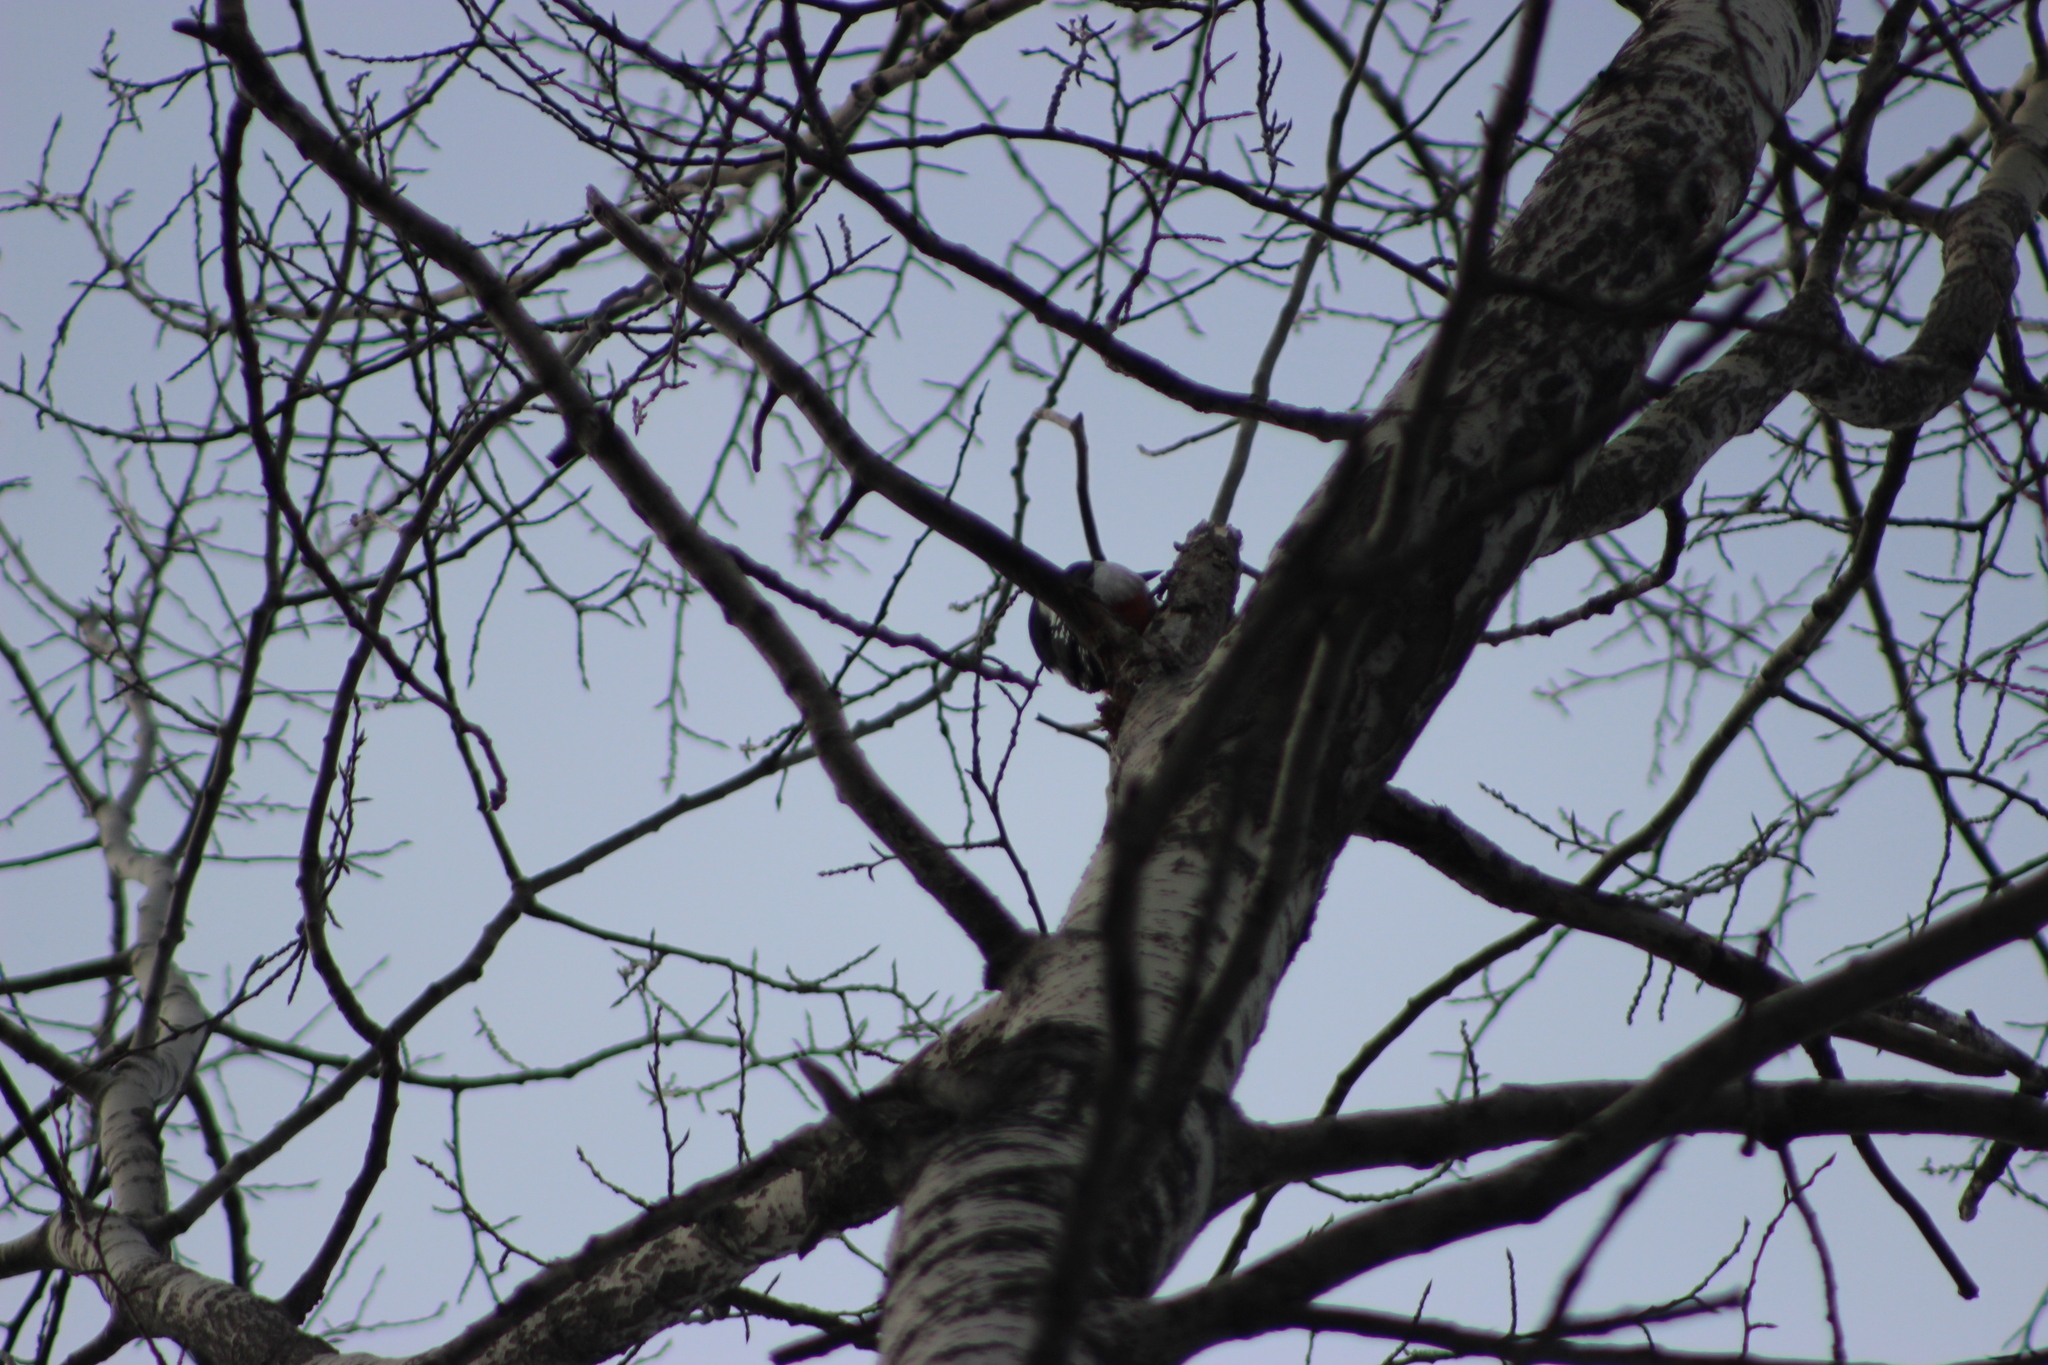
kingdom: Animalia
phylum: Chordata
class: Aves
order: Piciformes
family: Picidae
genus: Dendrocopos
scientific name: Dendrocopos major
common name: Great spotted woodpecker
